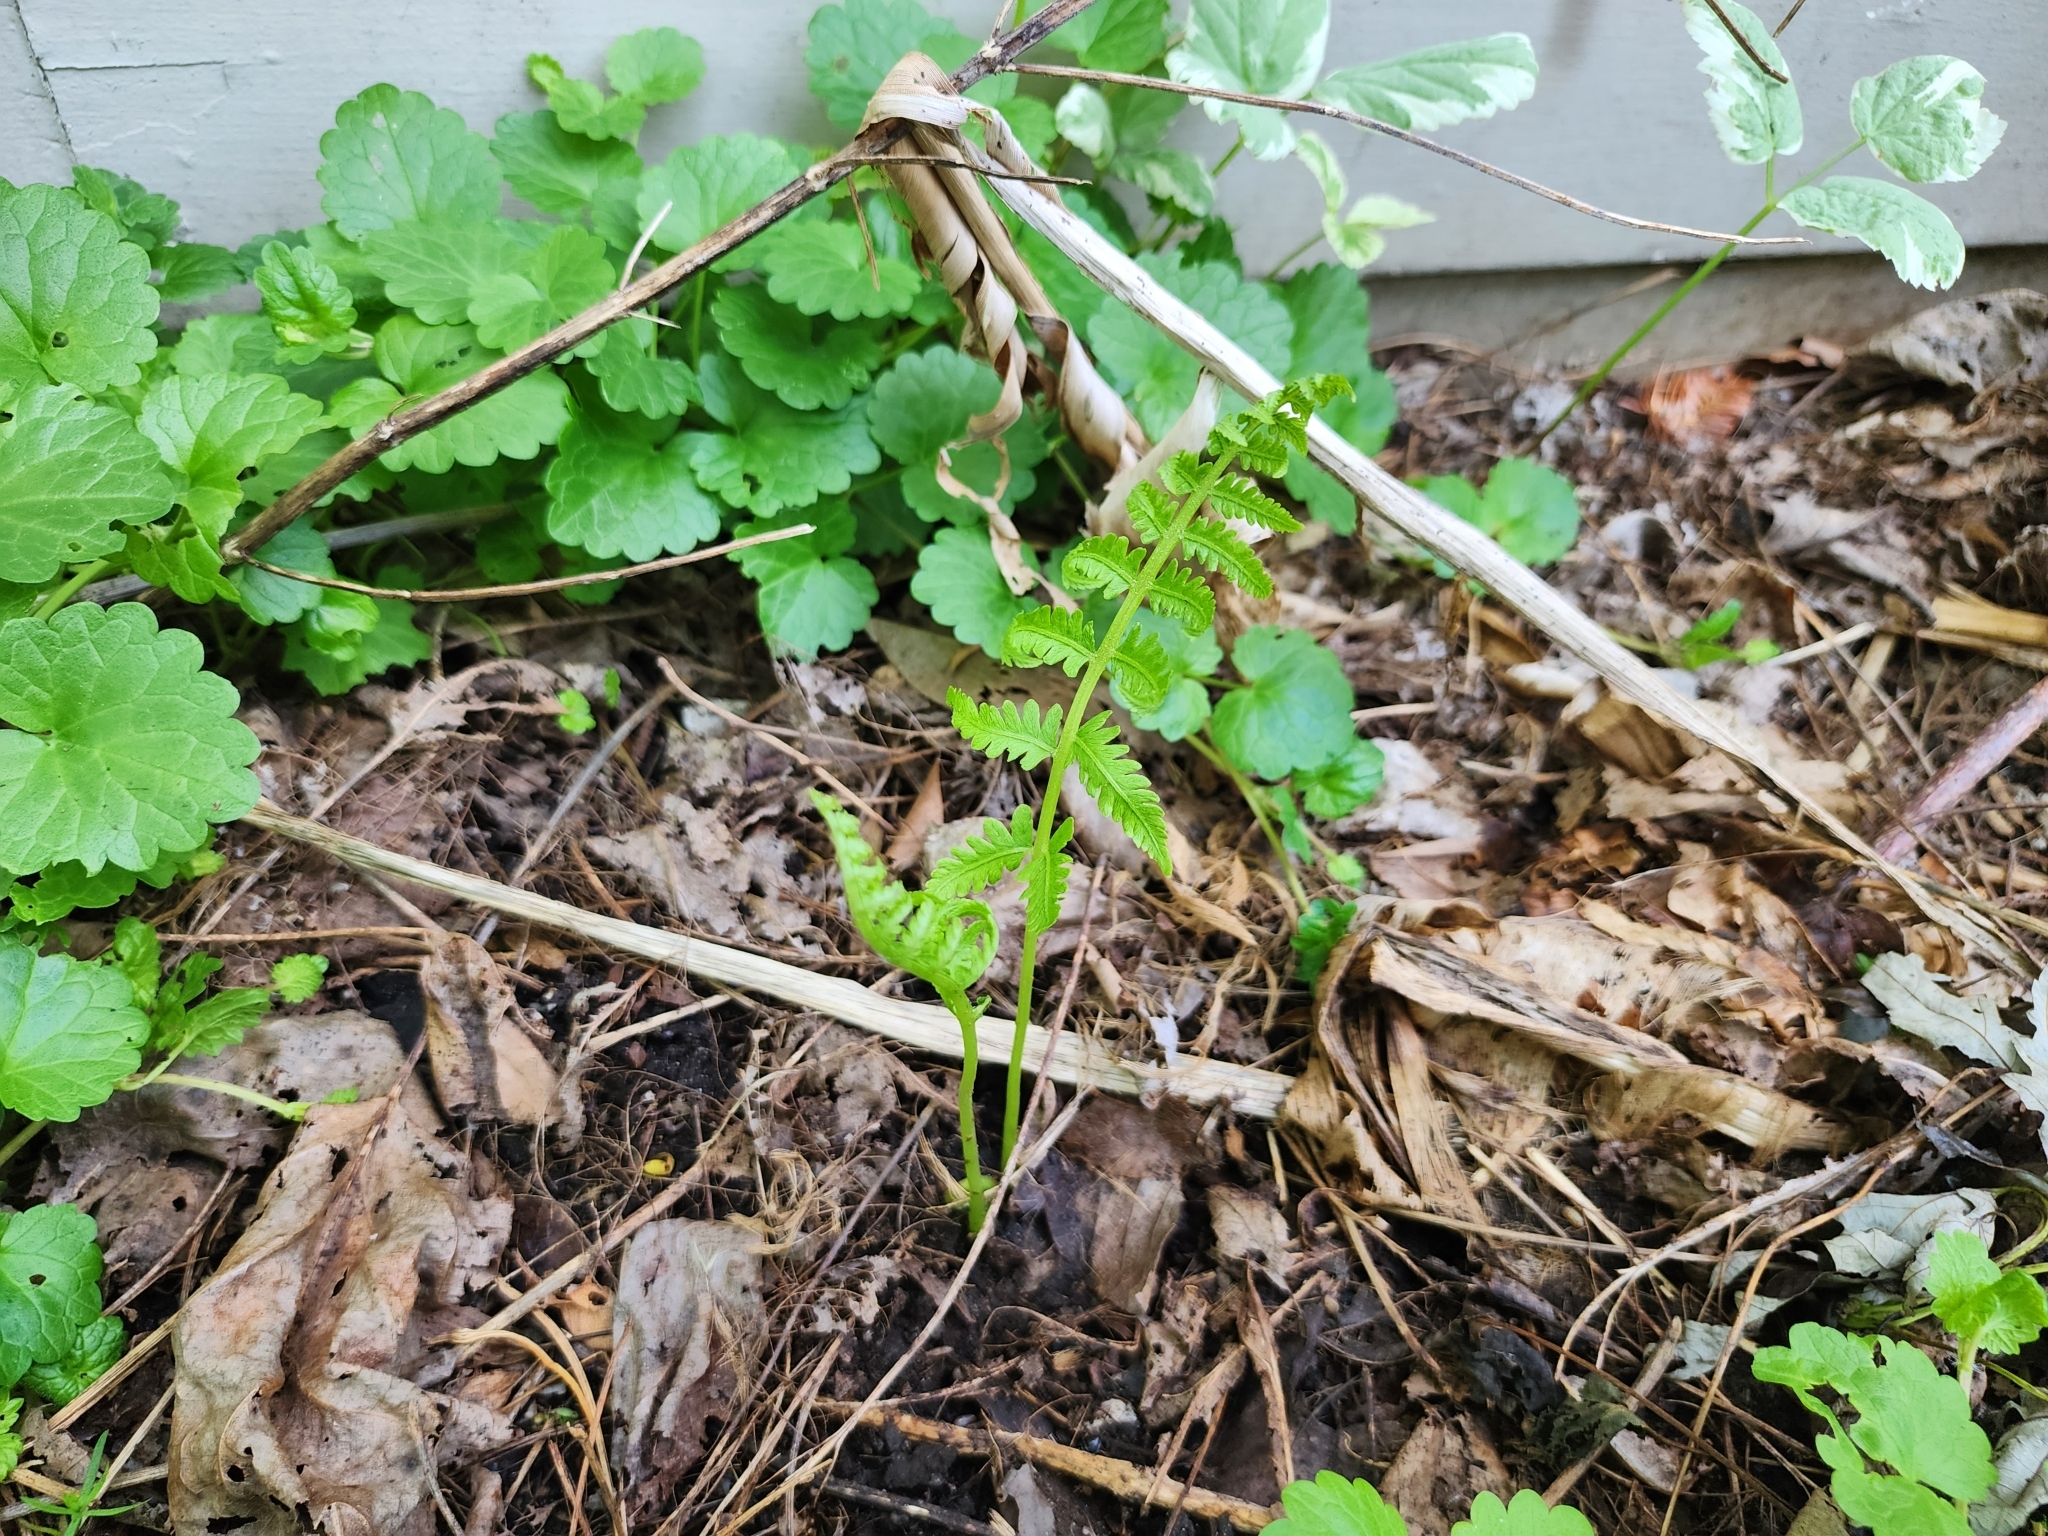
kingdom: Plantae
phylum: Tracheophyta
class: Polypodiopsida
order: Polypodiales
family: Onocleaceae
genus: Matteuccia
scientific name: Matteuccia struthiopteris
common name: Ostrich fern
